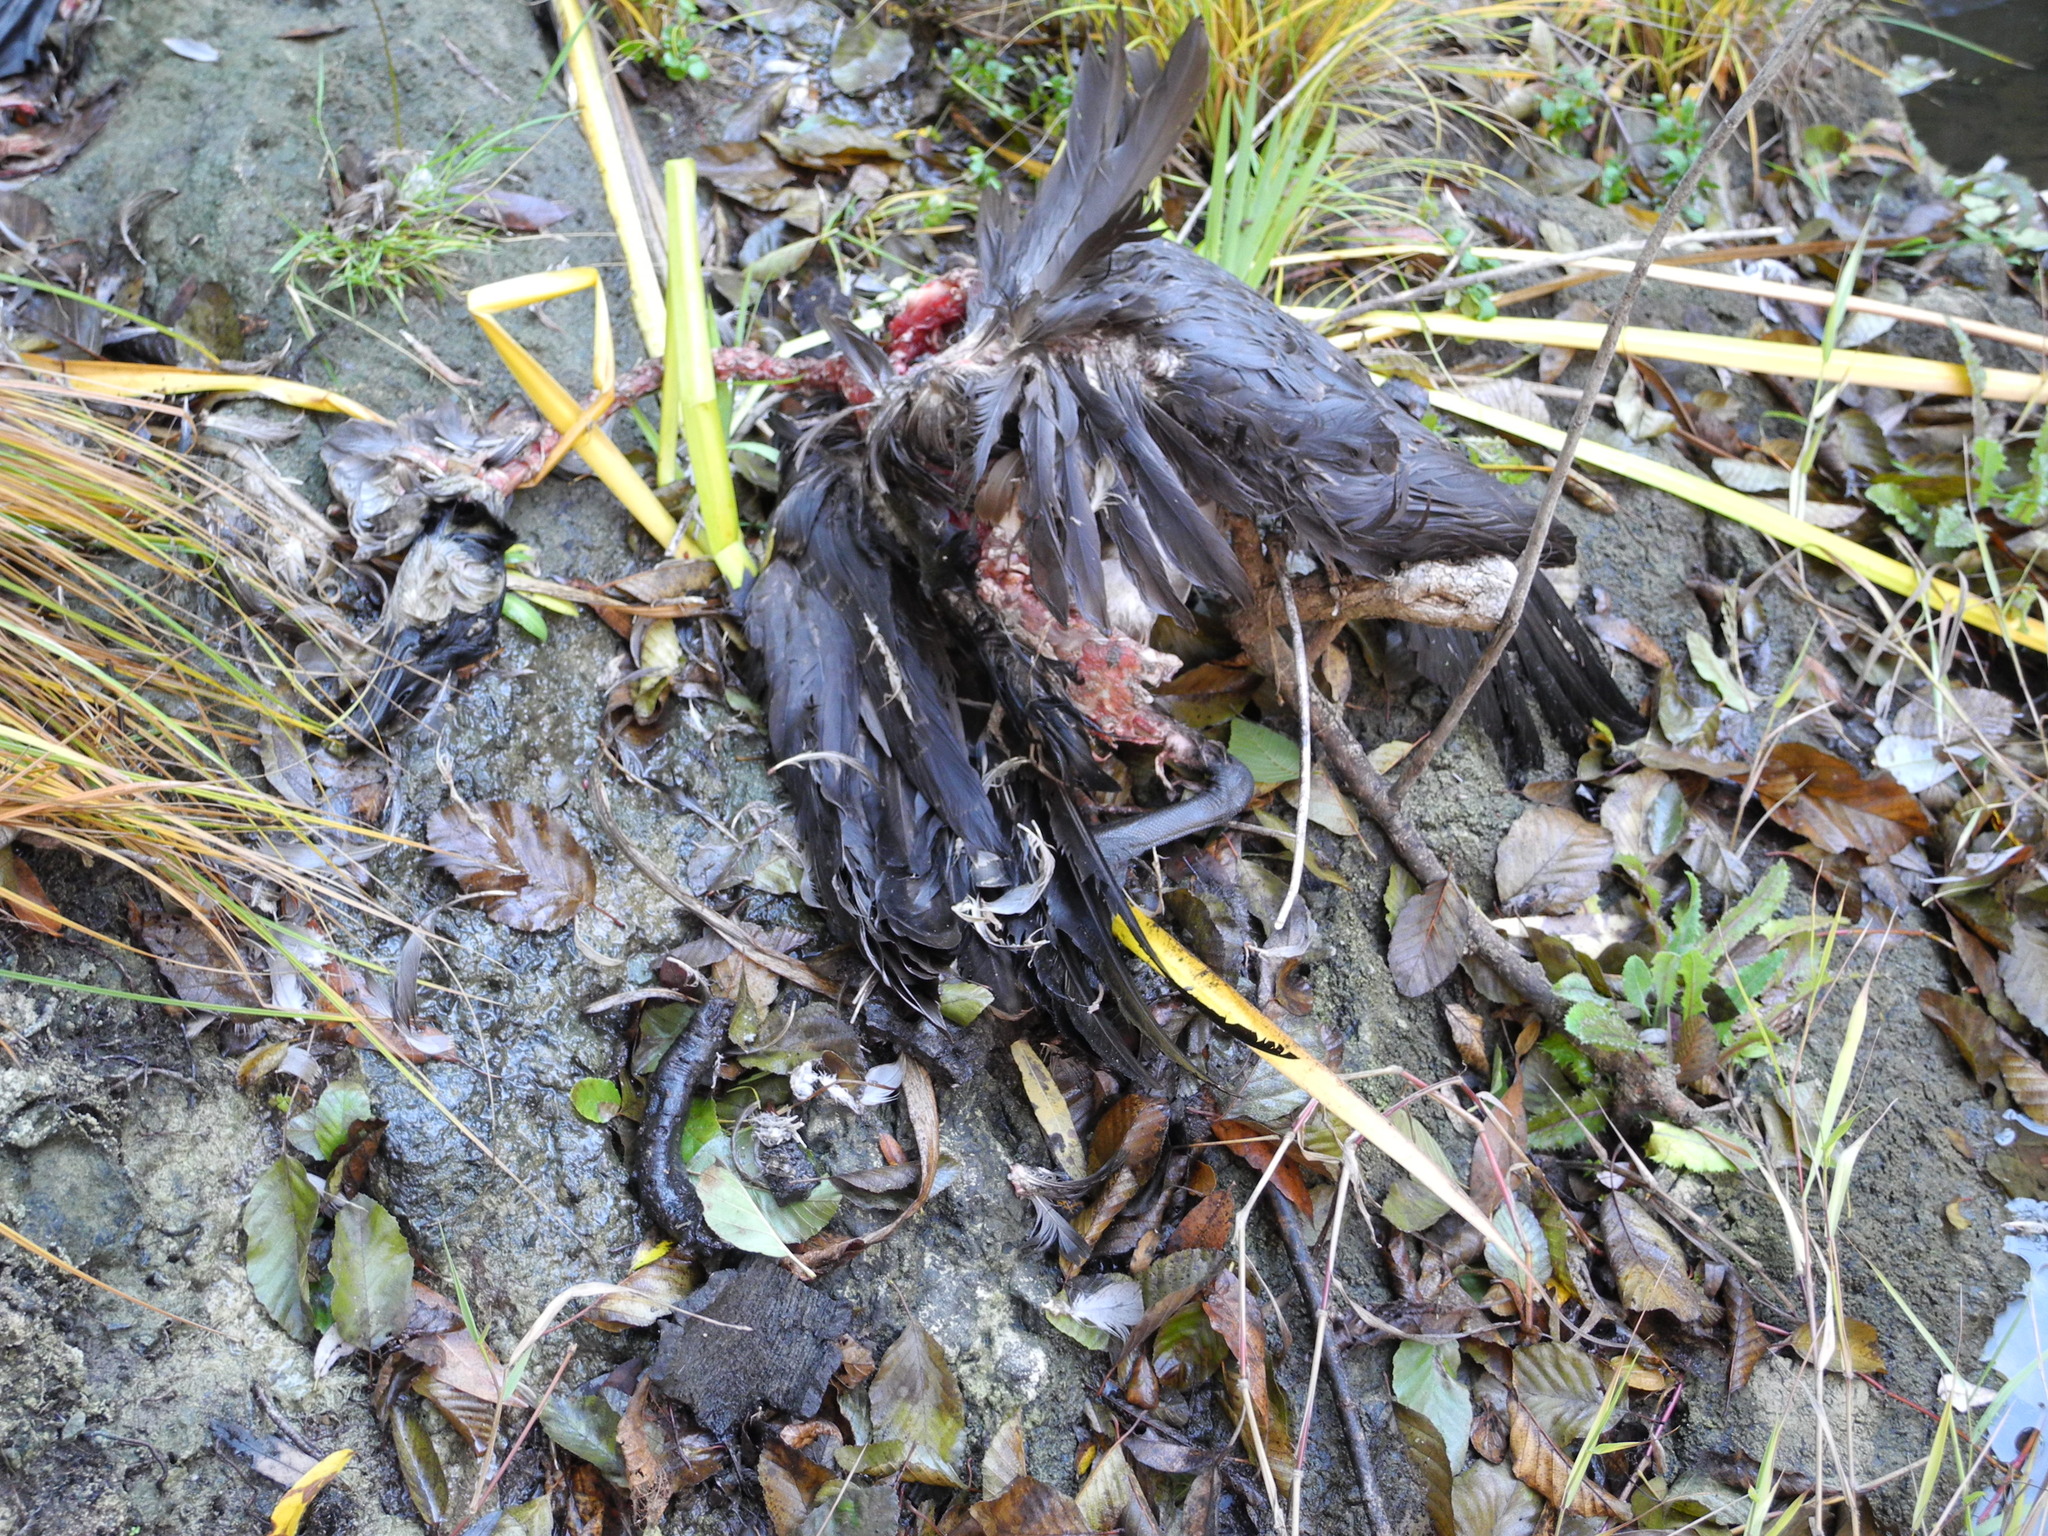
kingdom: Animalia
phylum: Chordata
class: Aves
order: Anseriformes
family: Anatidae
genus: Branta
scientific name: Branta canadensis
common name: Canada goose
